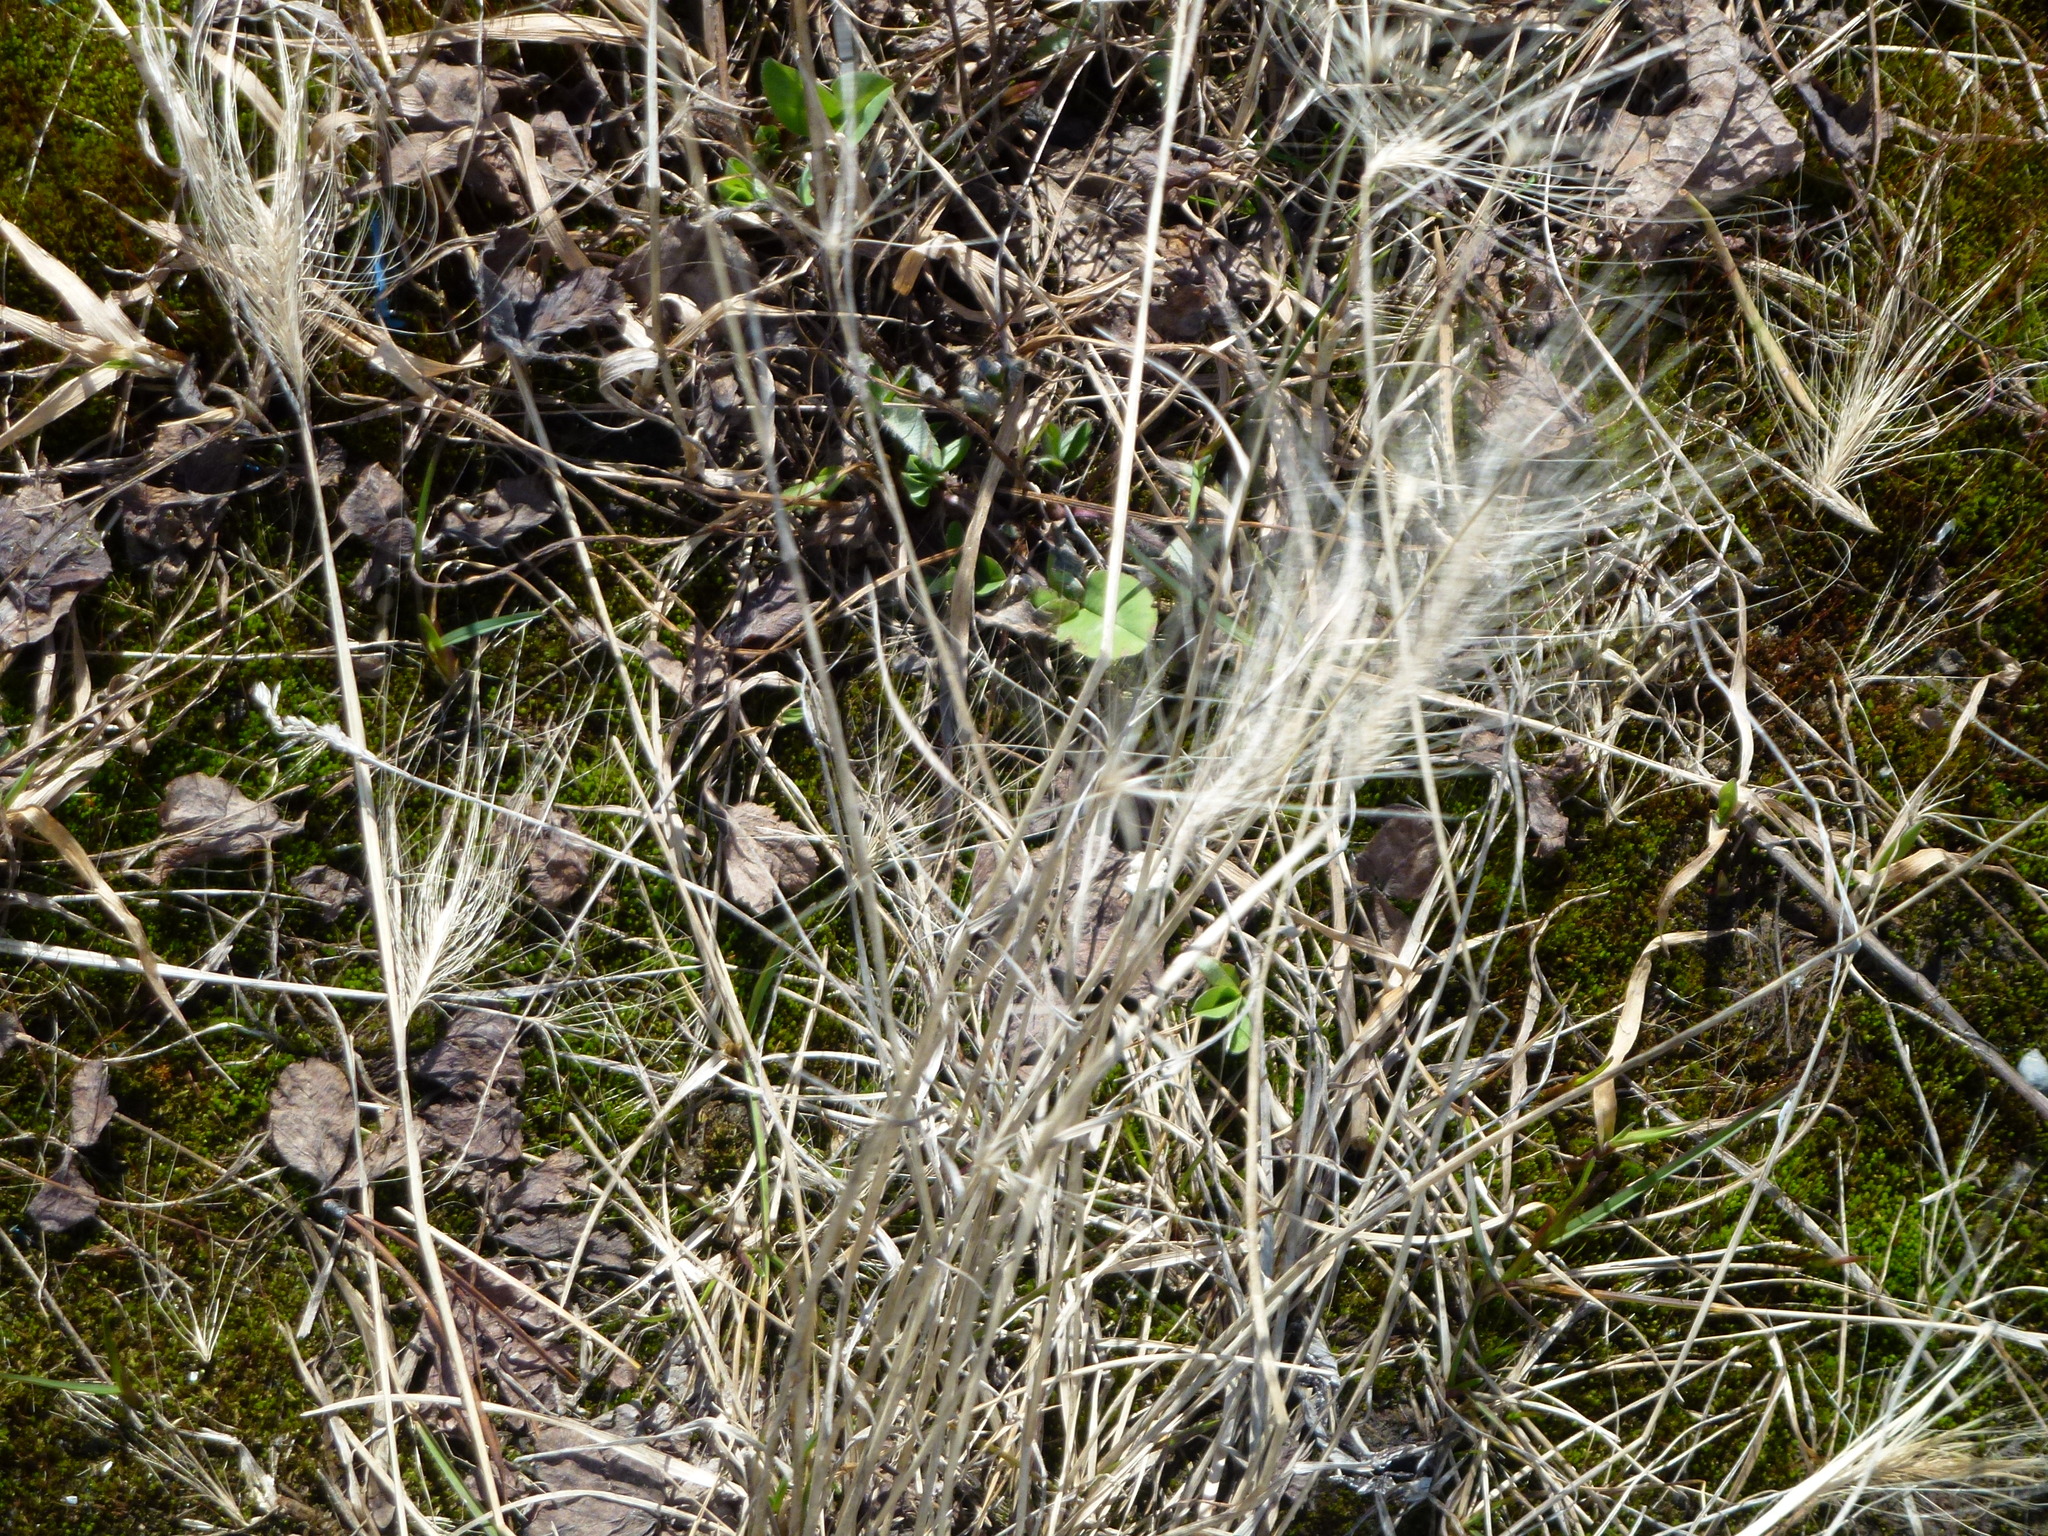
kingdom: Plantae
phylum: Tracheophyta
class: Liliopsida
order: Poales
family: Poaceae
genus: Hordeum
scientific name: Hordeum jubatum
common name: Foxtail barley
